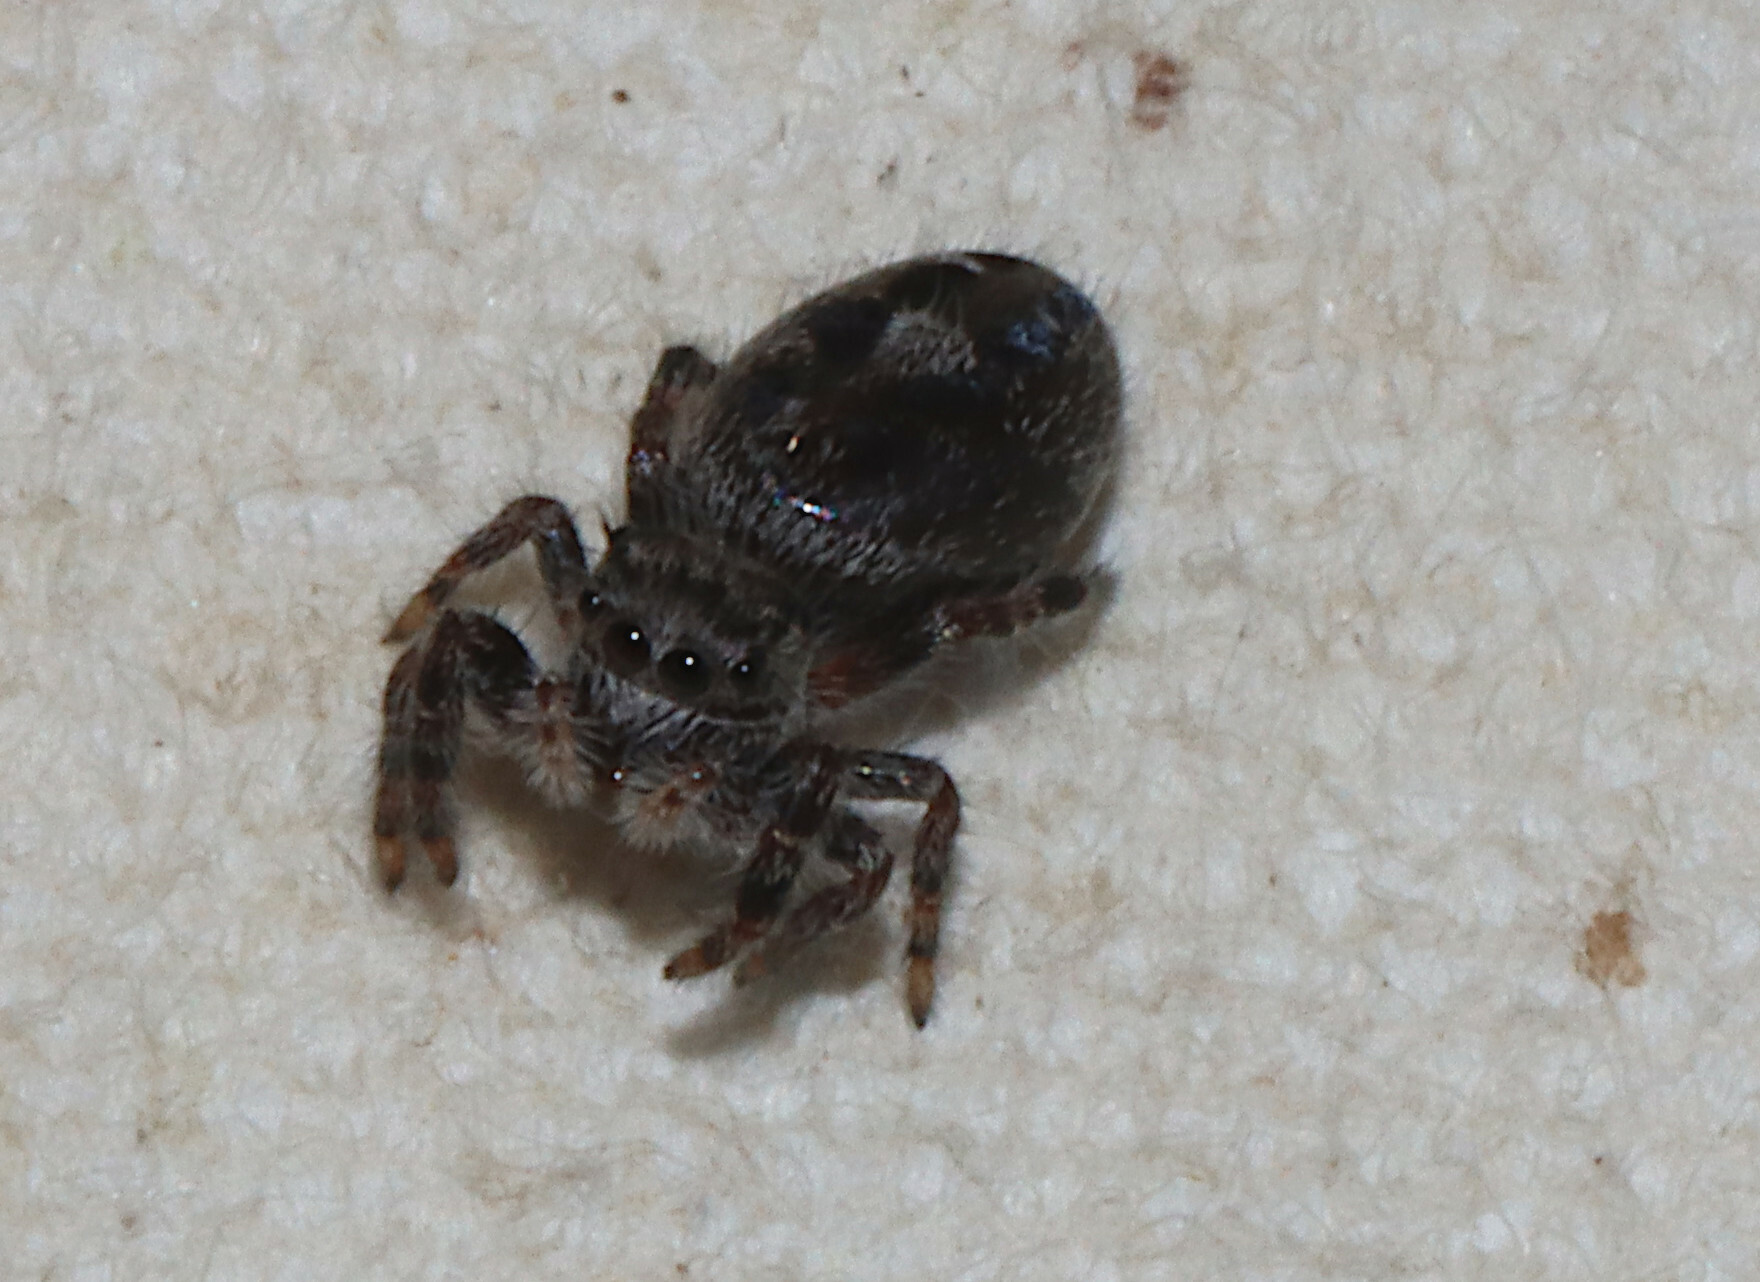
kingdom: Animalia
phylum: Arthropoda
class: Arachnida
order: Araneae
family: Salticidae
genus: Phidippus
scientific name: Phidippus putnami
